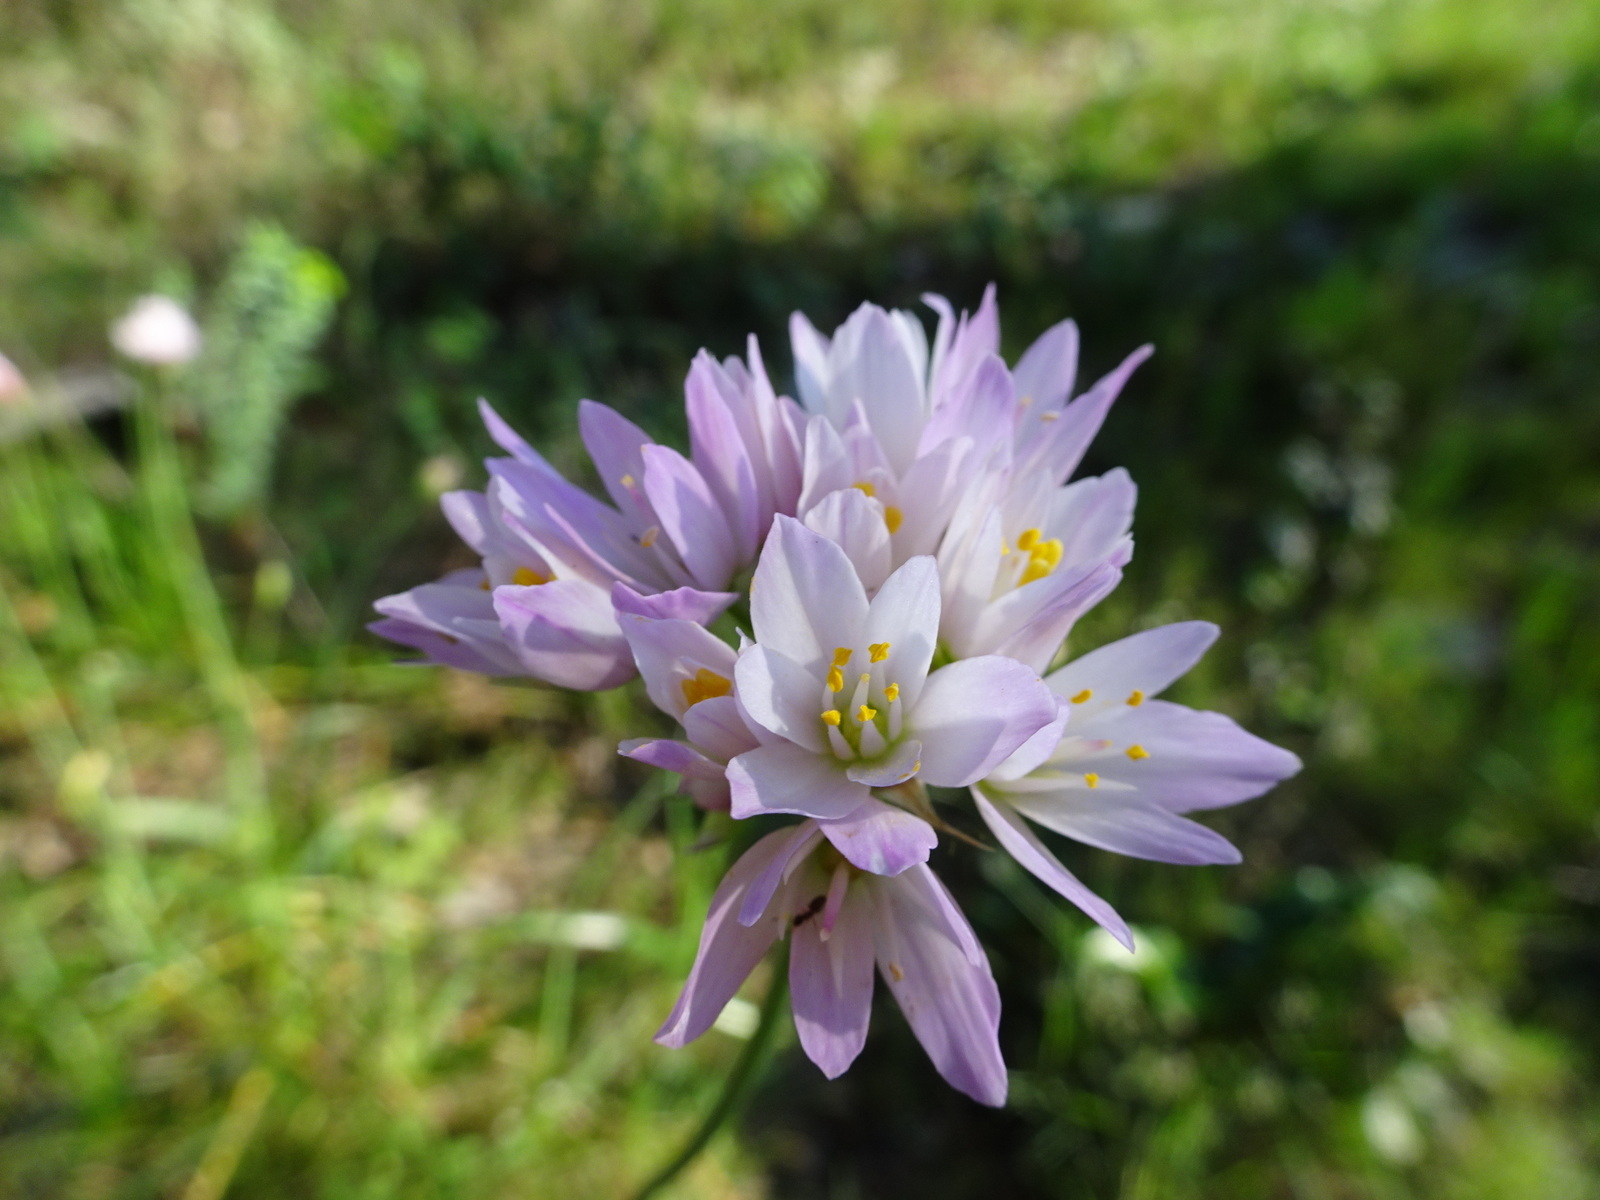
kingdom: Plantae
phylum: Tracheophyta
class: Liliopsida
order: Asparagales
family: Amaryllidaceae
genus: Allium
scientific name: Allium roseum
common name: Rosy garlic
